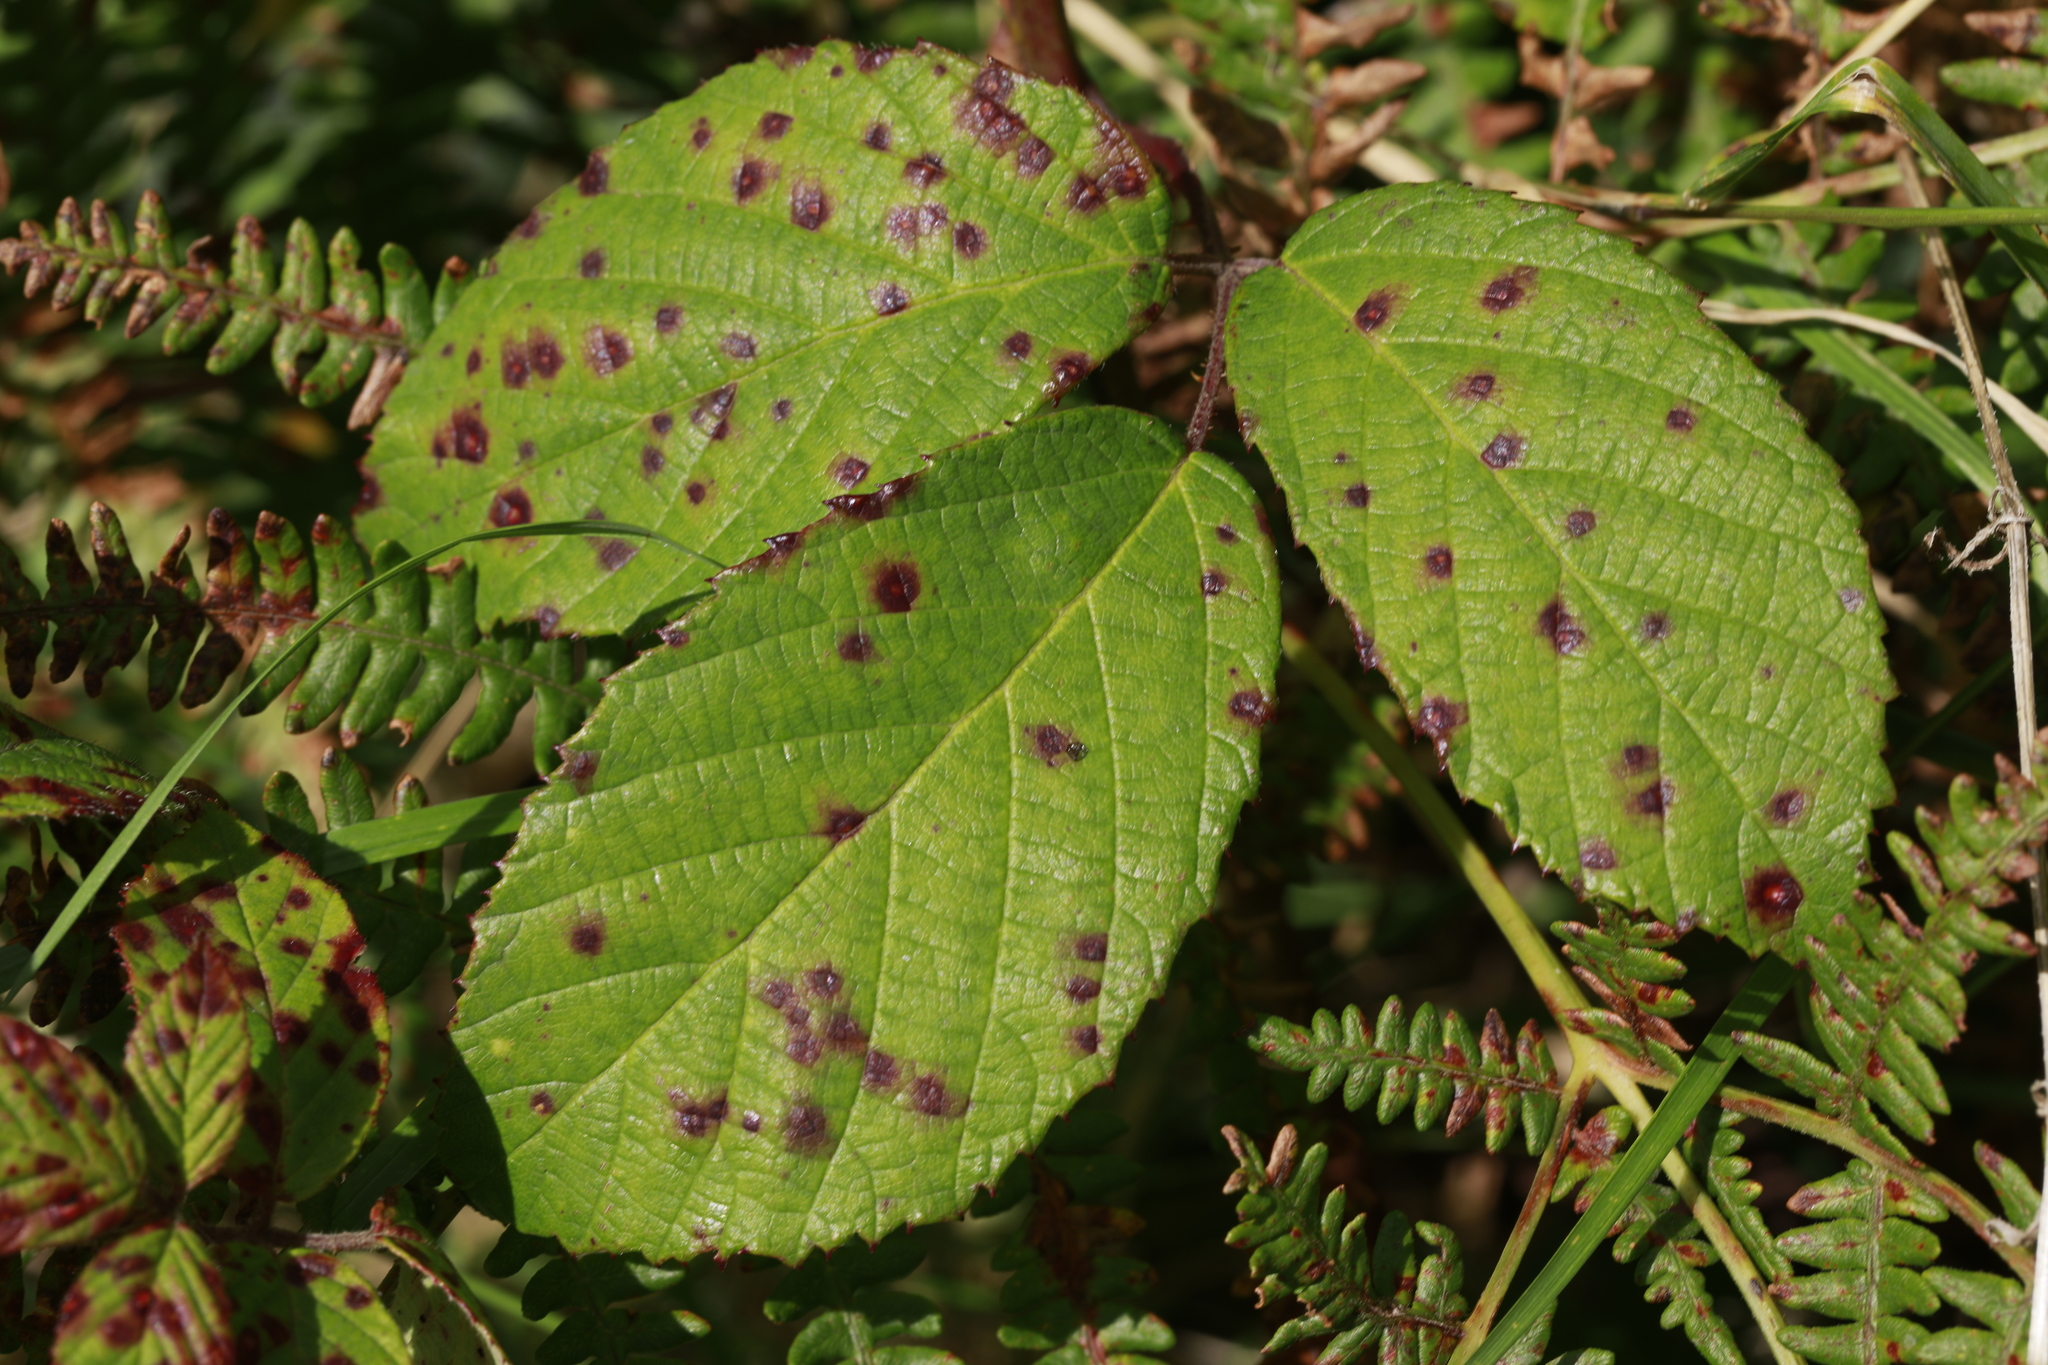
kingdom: Fungi
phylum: Basidiomycota
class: Pucciniomycetes
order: Pucciniales
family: Phragmidiaceae
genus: Phragmidium
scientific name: Phragmidium violaceum
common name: Violet bramble rust
